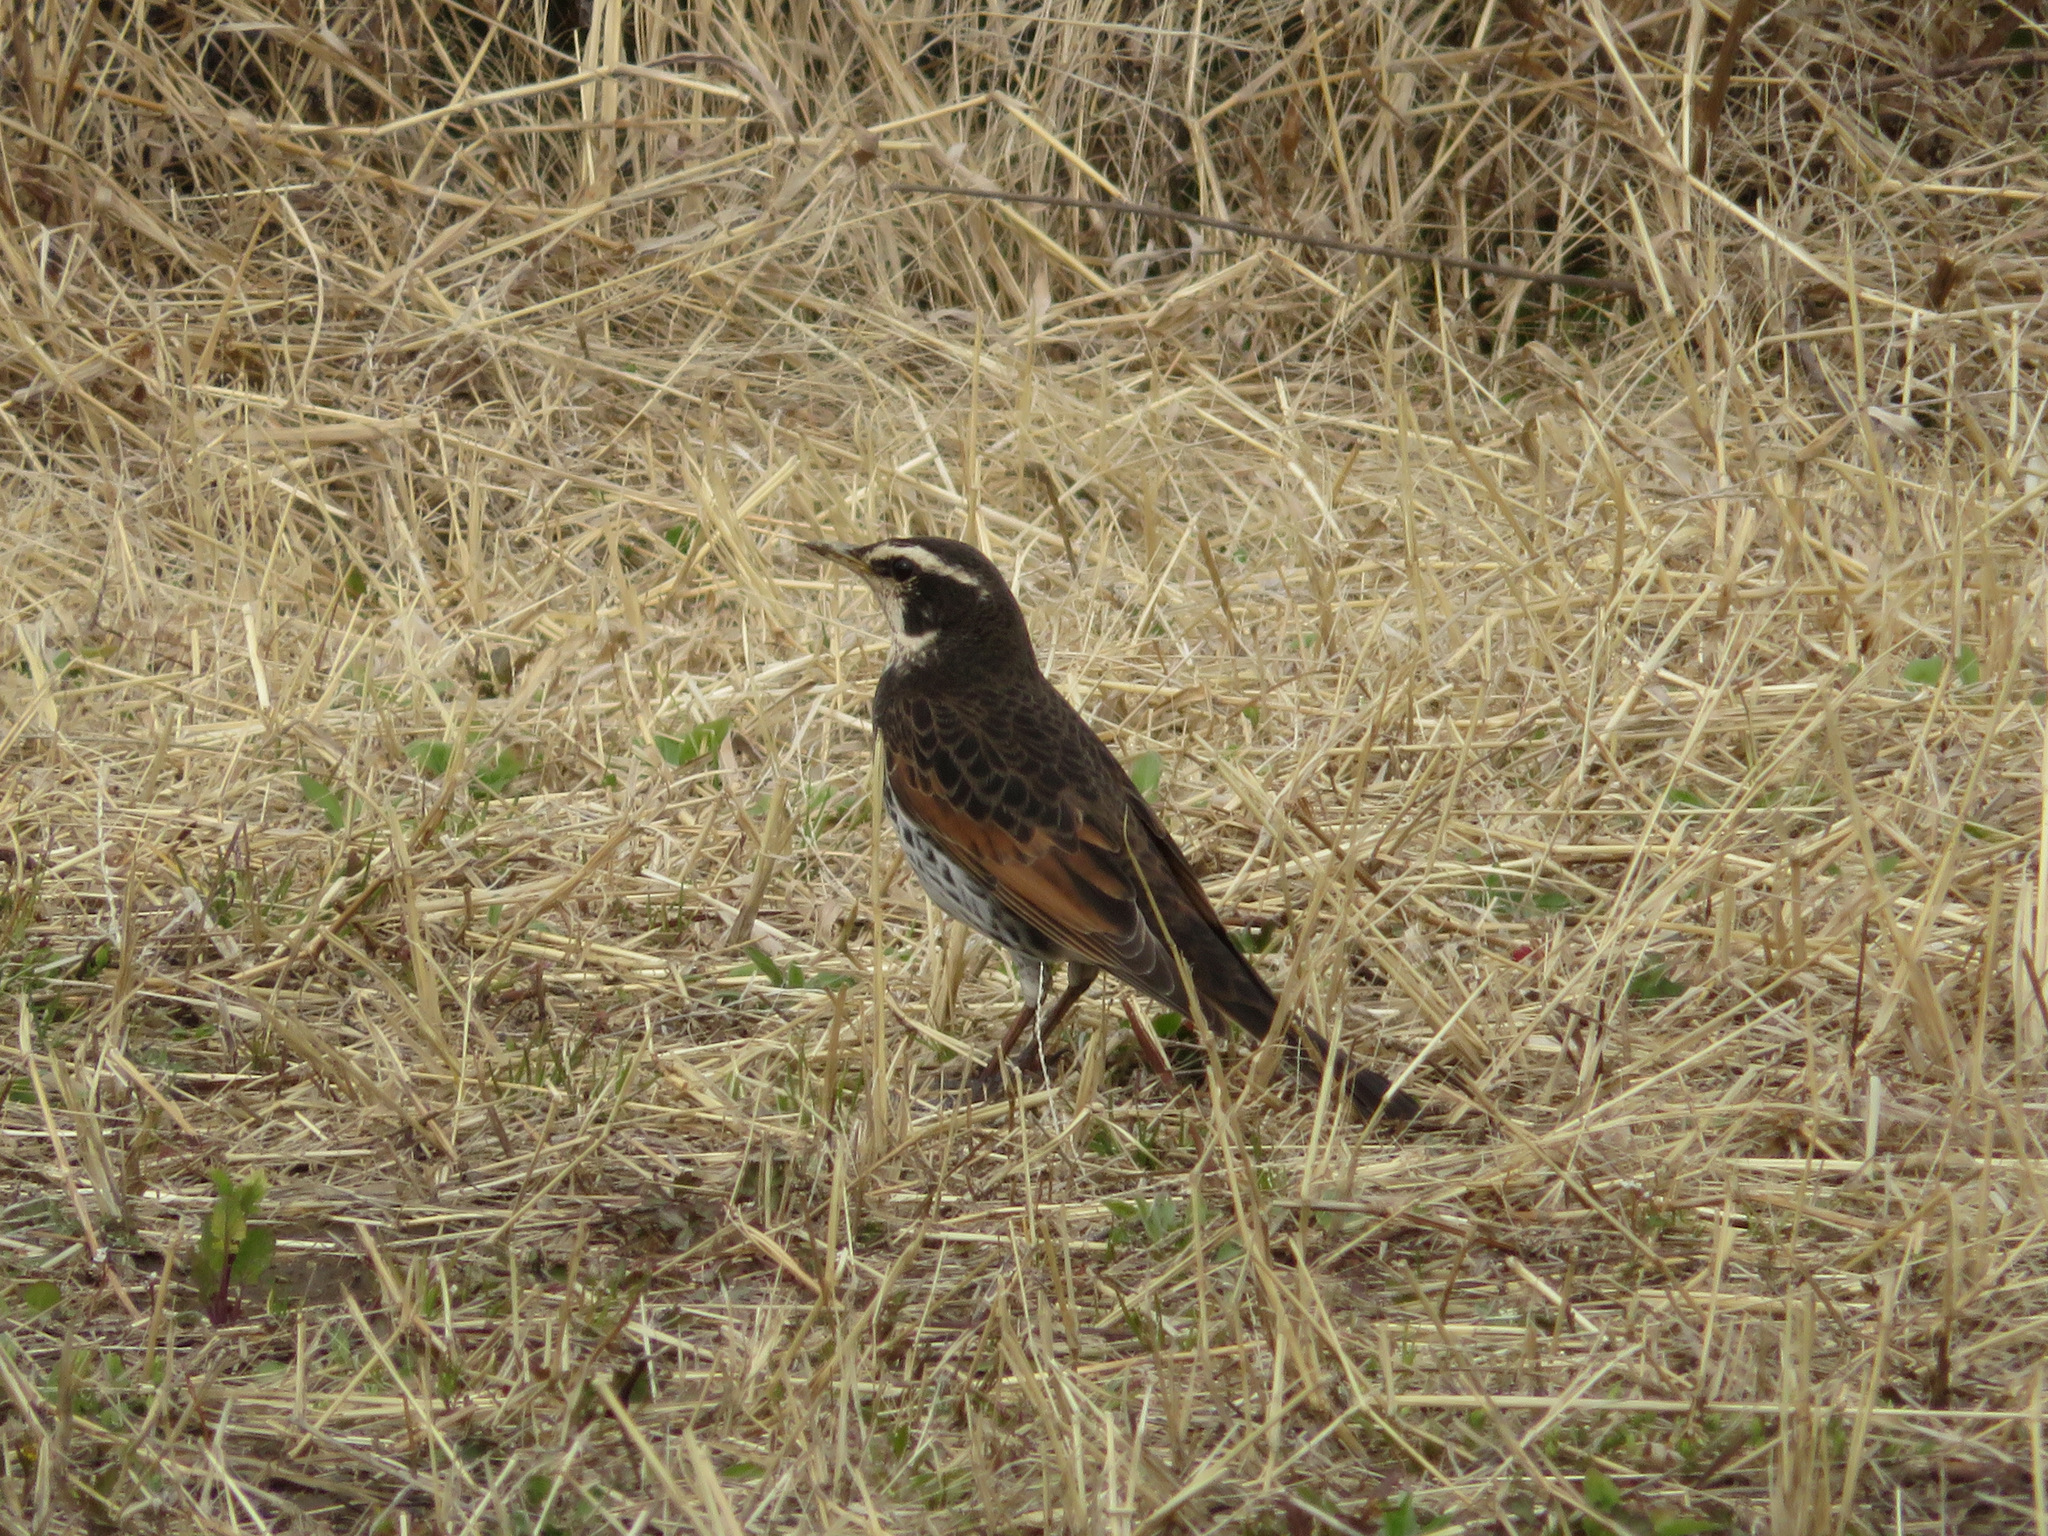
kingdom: Animalia
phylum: Chordata
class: Aves
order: Passeriformes
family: Turdidae
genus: Turdus
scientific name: Turdus eunomus
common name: Dusky thrush
